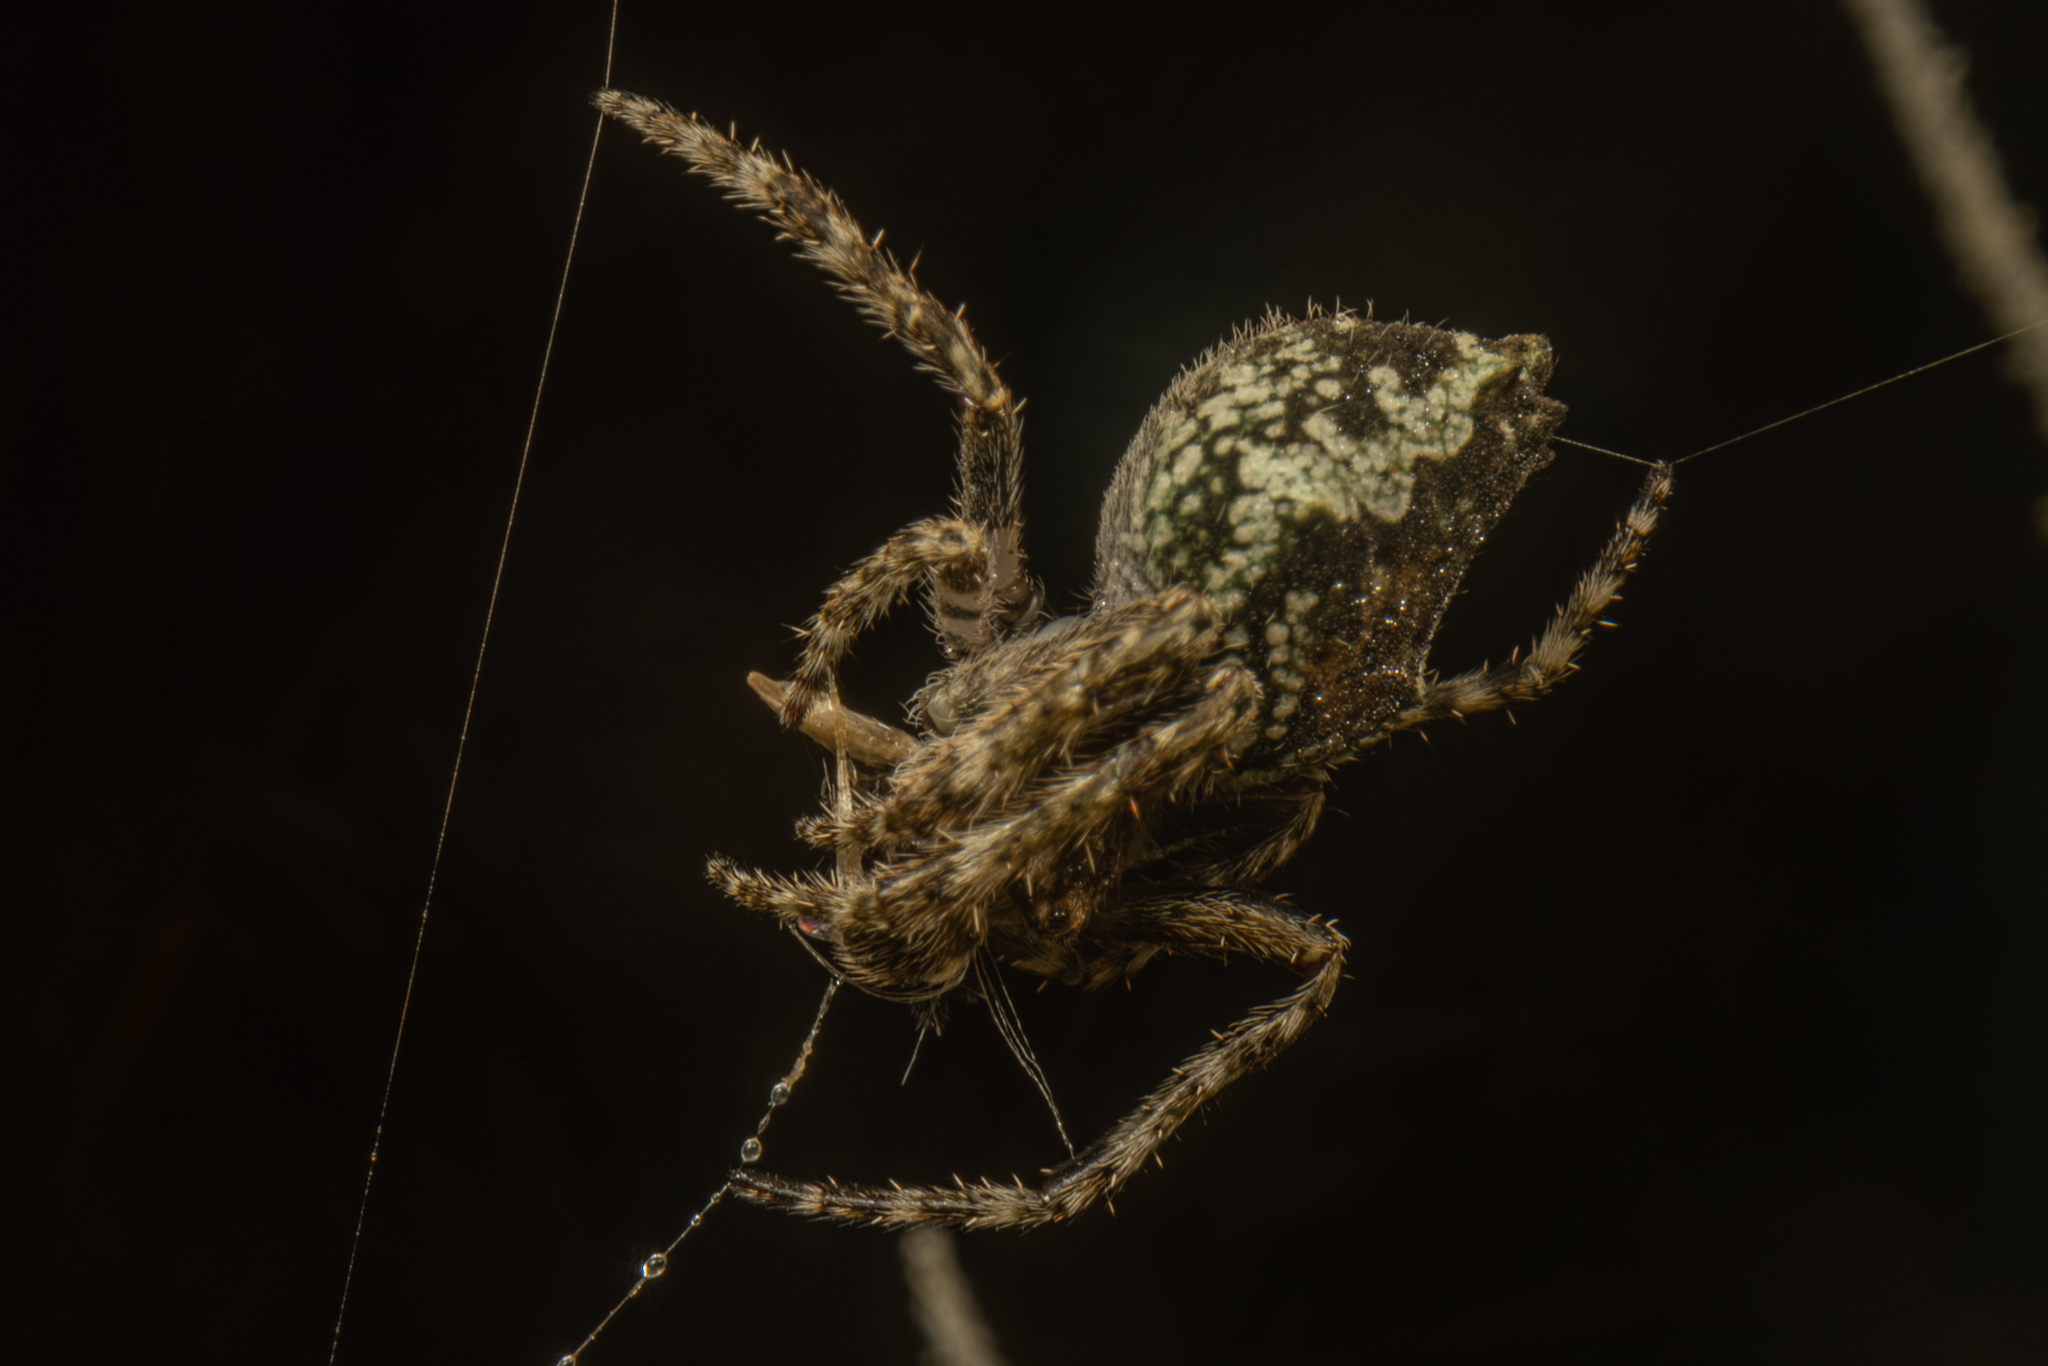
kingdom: Animalia
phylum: Arthropoda
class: Arachnida
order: Araneae
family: Araneidae
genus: Eriophora
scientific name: Eriophora pustulosa
